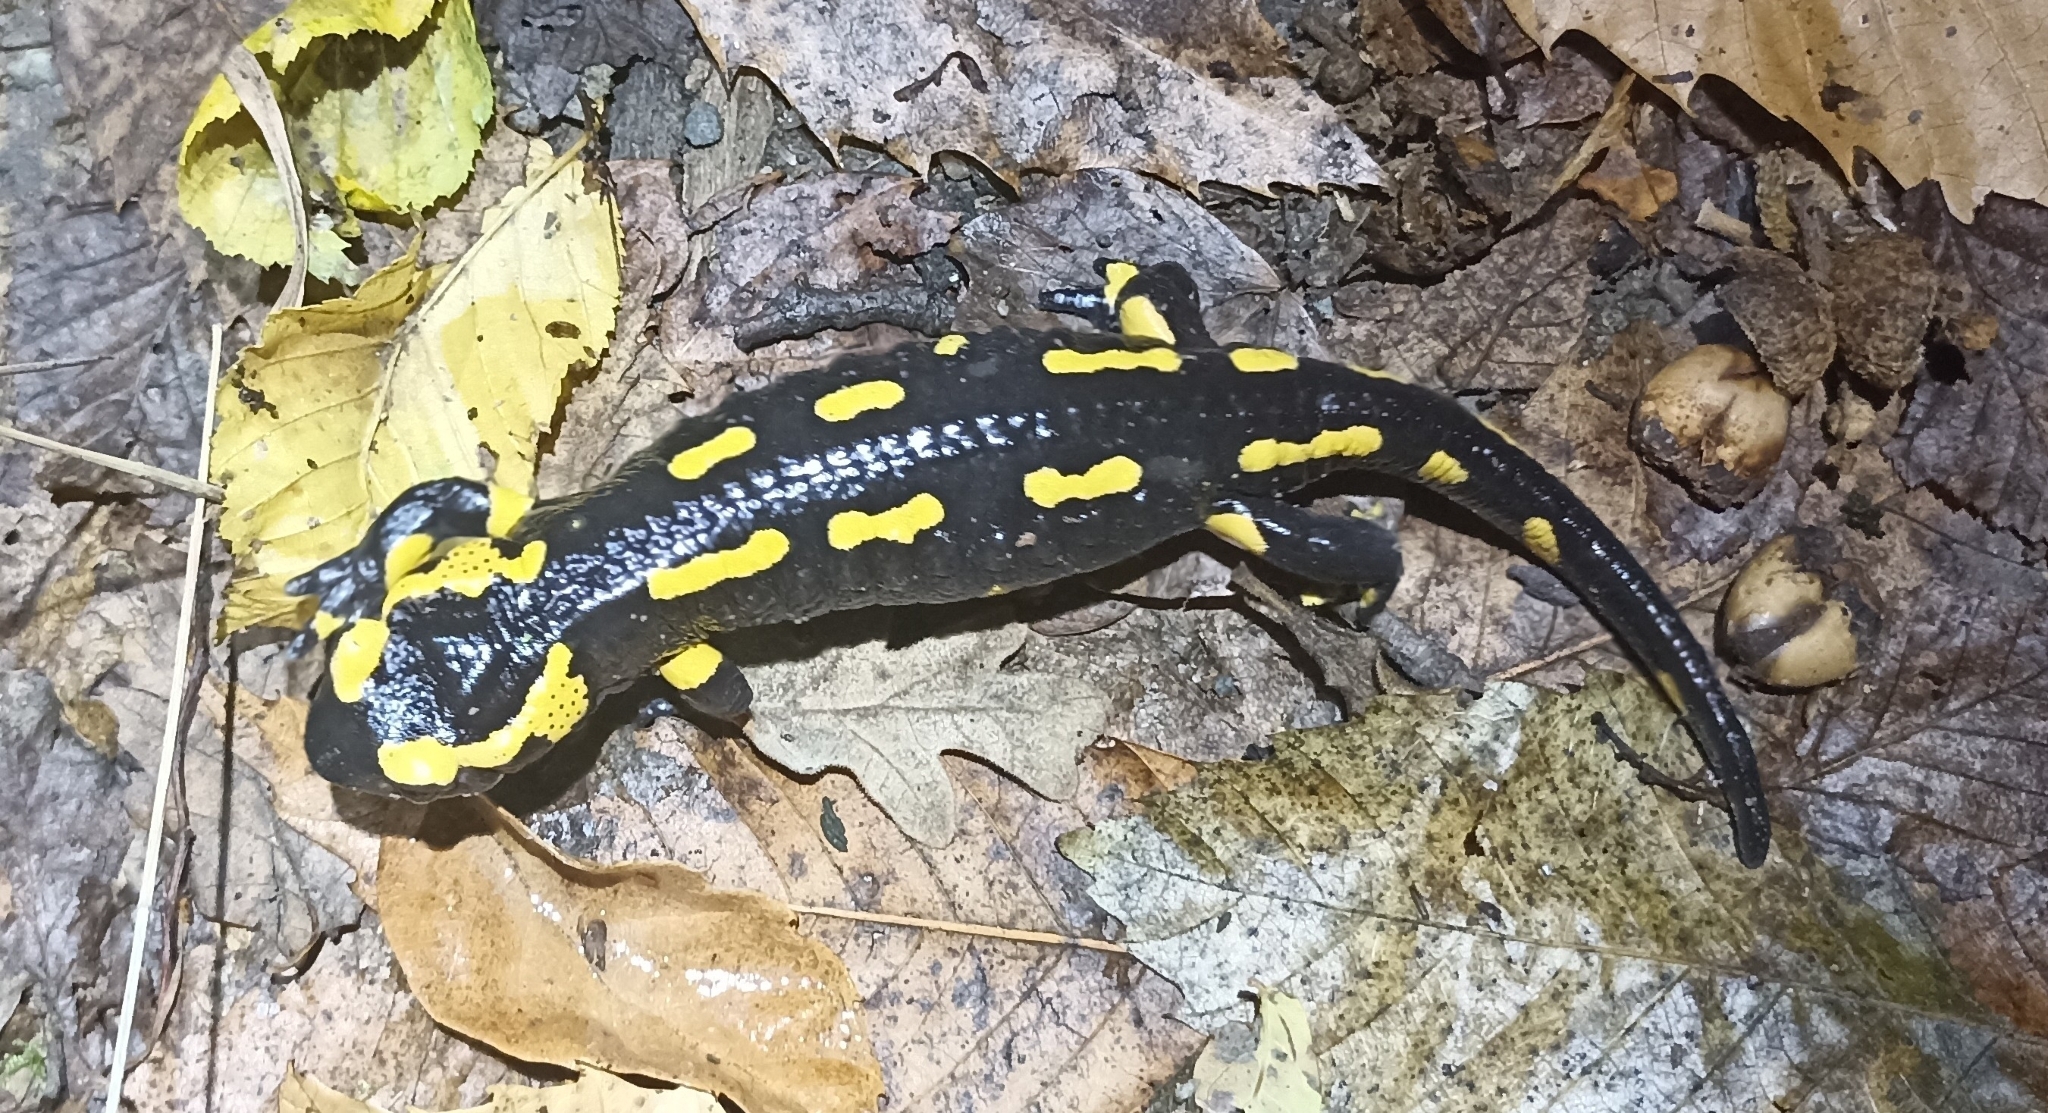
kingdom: Animalia
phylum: Chordata
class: Amphibia
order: Caudata
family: Salamandridae
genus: Salamandra
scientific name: Salamandra salamandra
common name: Fire salamander
